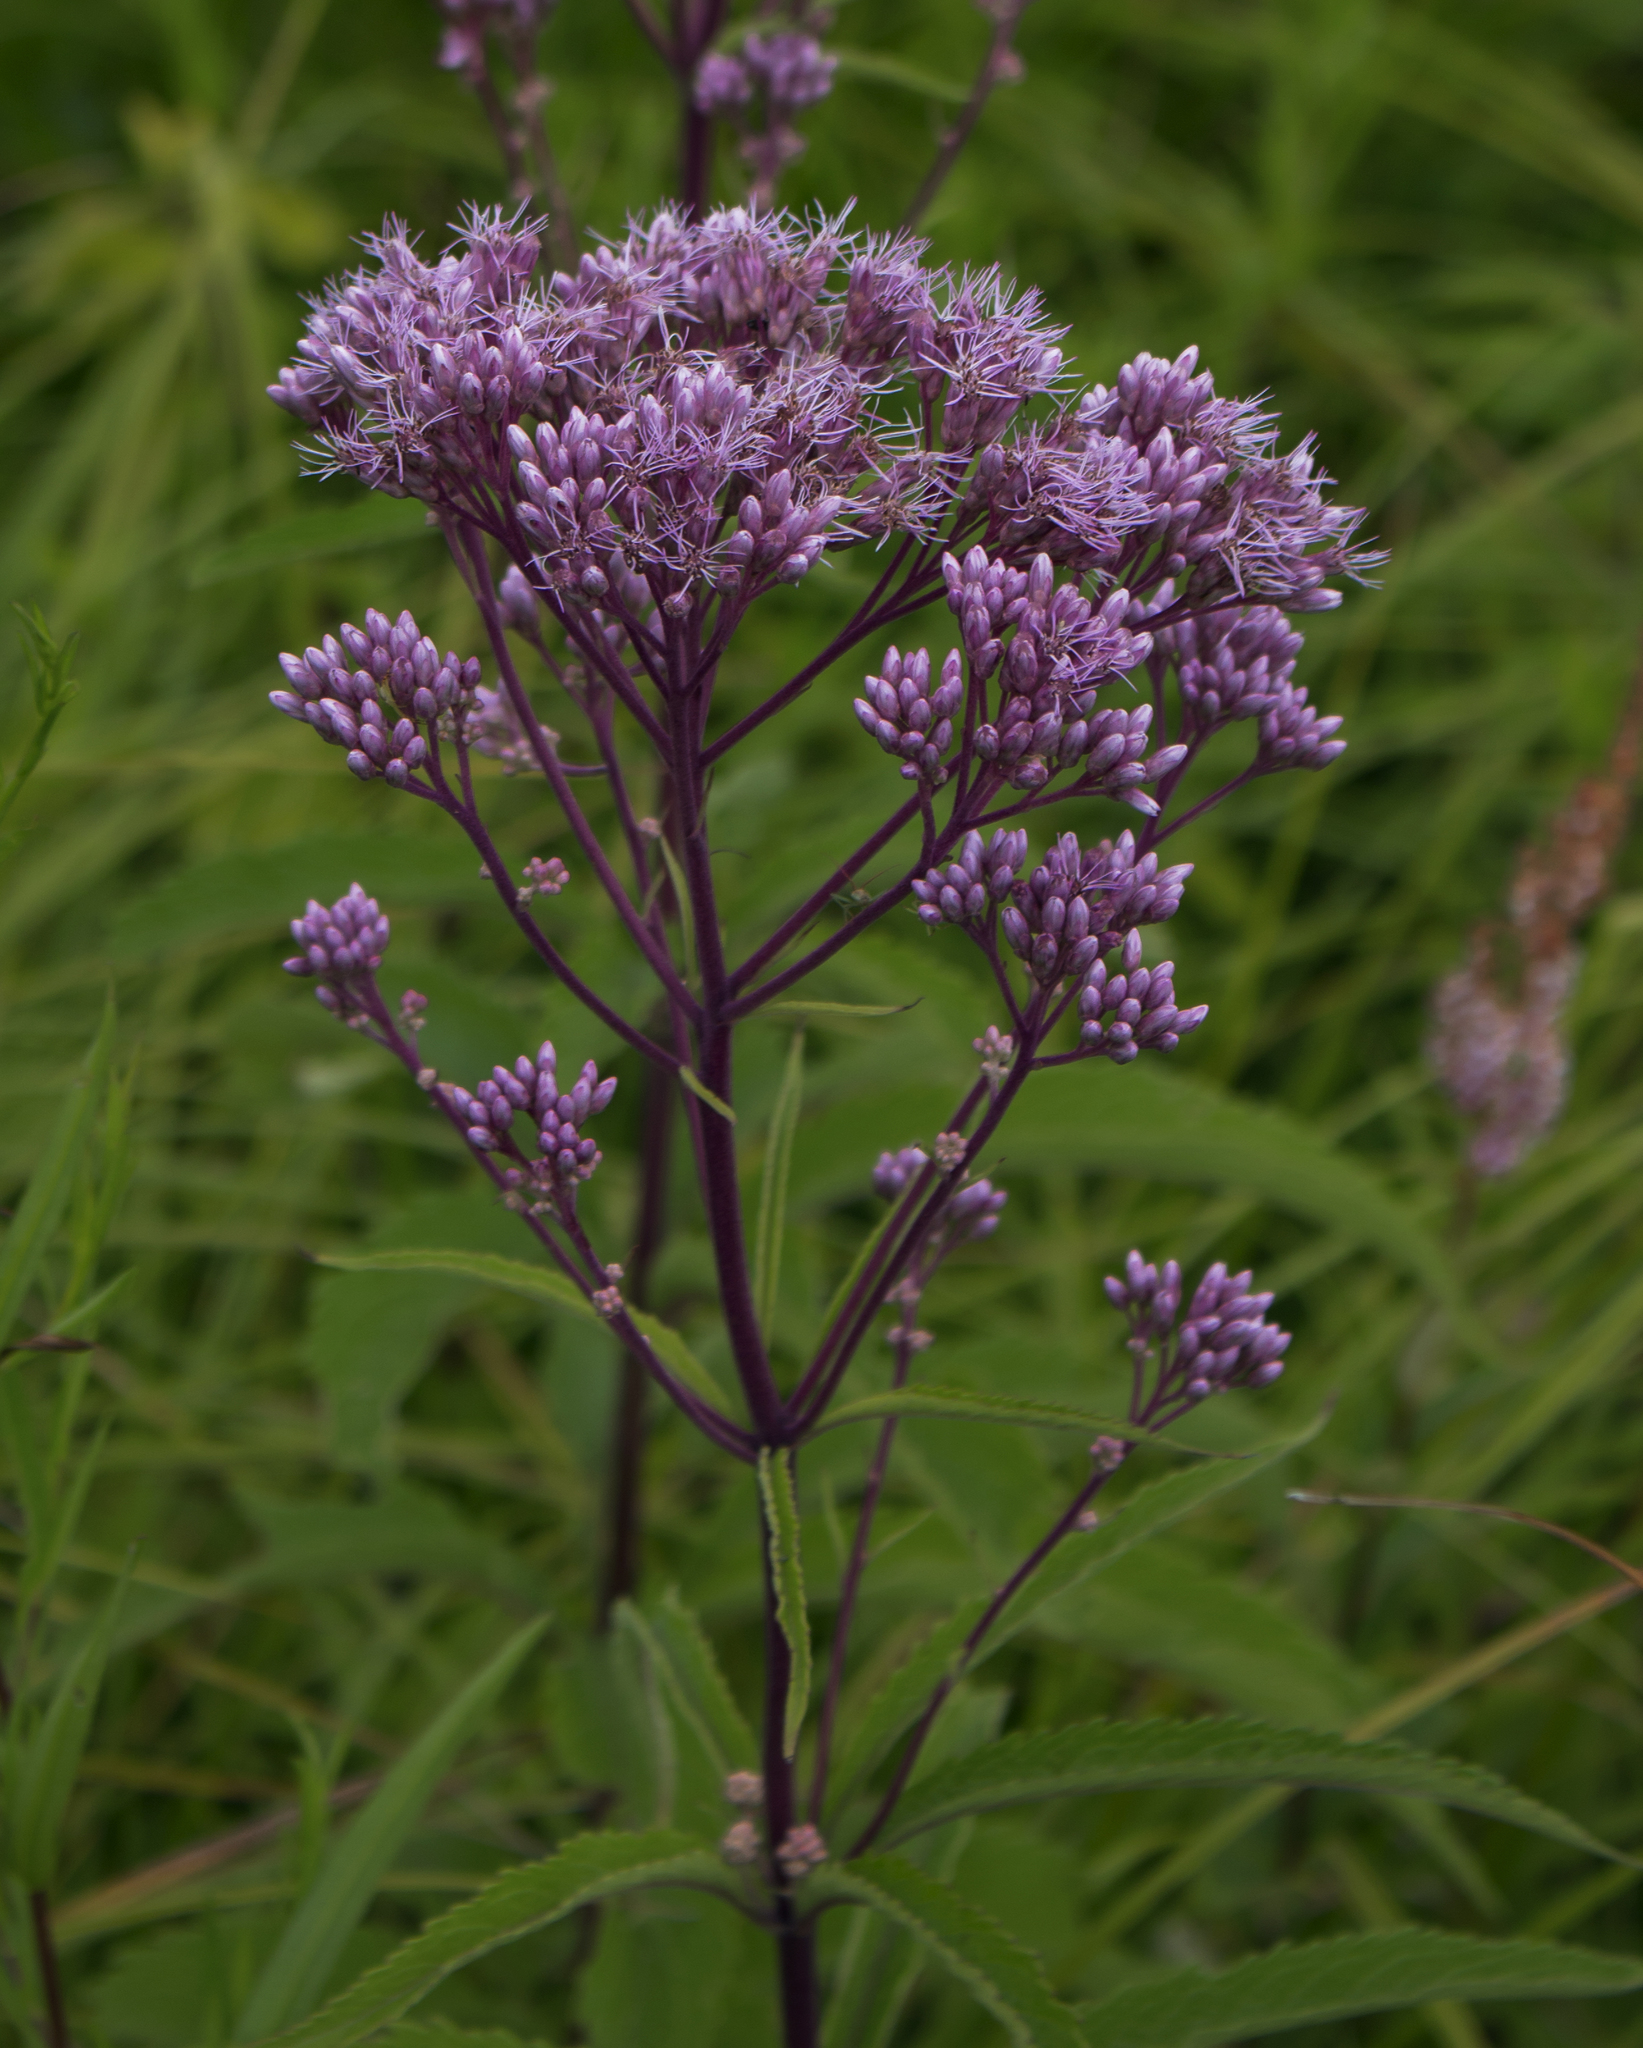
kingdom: Plantae
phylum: Tracheophyta
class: Magnoliopsida
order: Asterales
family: Asteraceae
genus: Eutrochium
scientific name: Eutrochium maculatum
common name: Spotted joe pye weed
